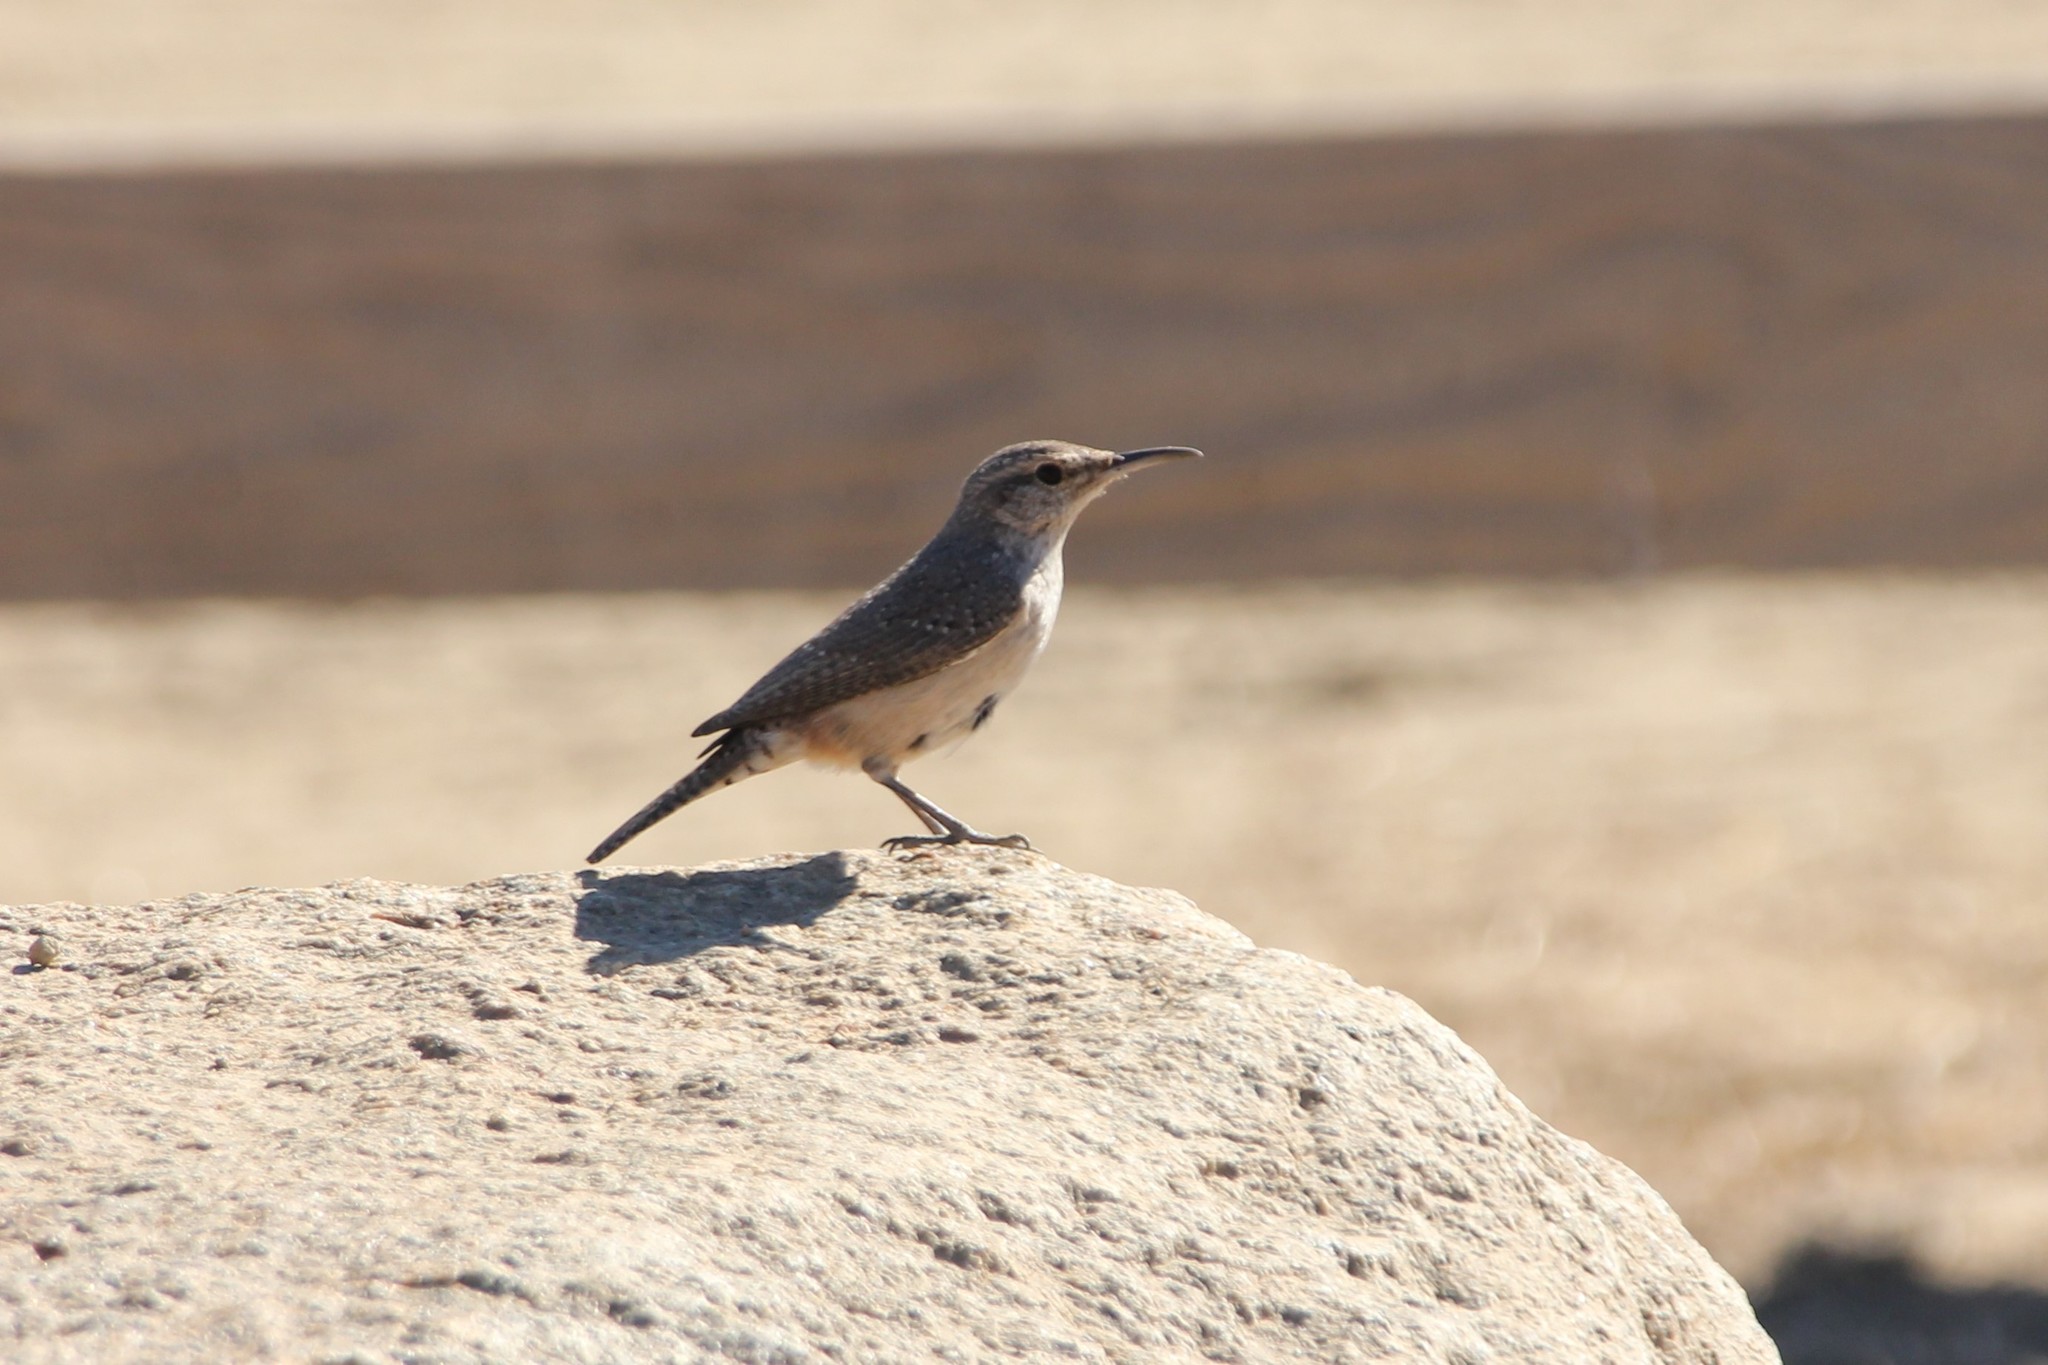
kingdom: Animalia
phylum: Chordata
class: Aves
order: Passeriformes
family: Troglodytidae
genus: Salpinctes
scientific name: Salpinctes obsoletus
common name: Rock wren
